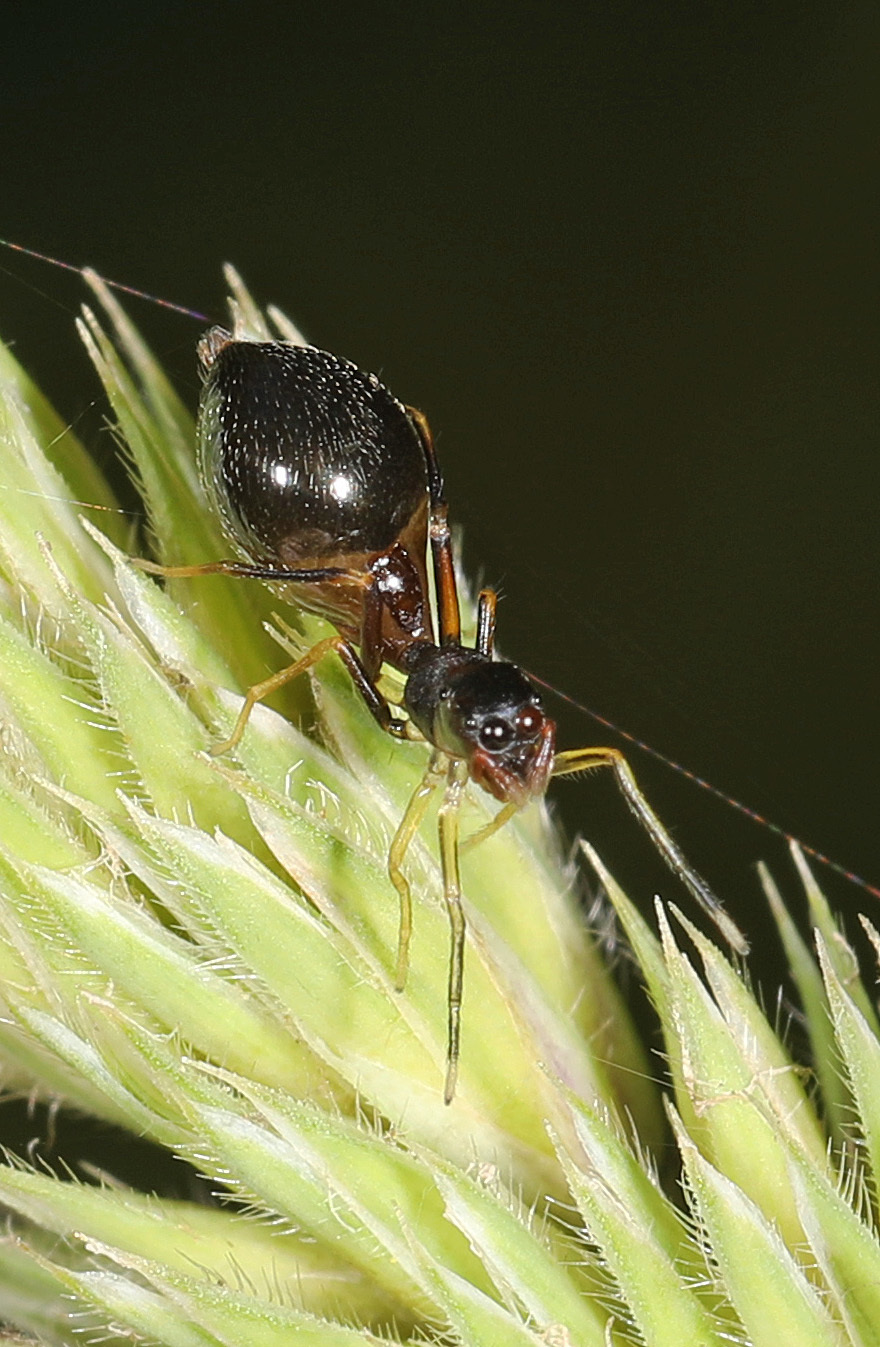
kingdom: Animalia
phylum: Arthropoda
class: Arachnida
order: Araneae
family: Salticidae
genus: Synemosyna
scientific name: Synemosyna formica
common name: Slender ant-mimic jumping spider
